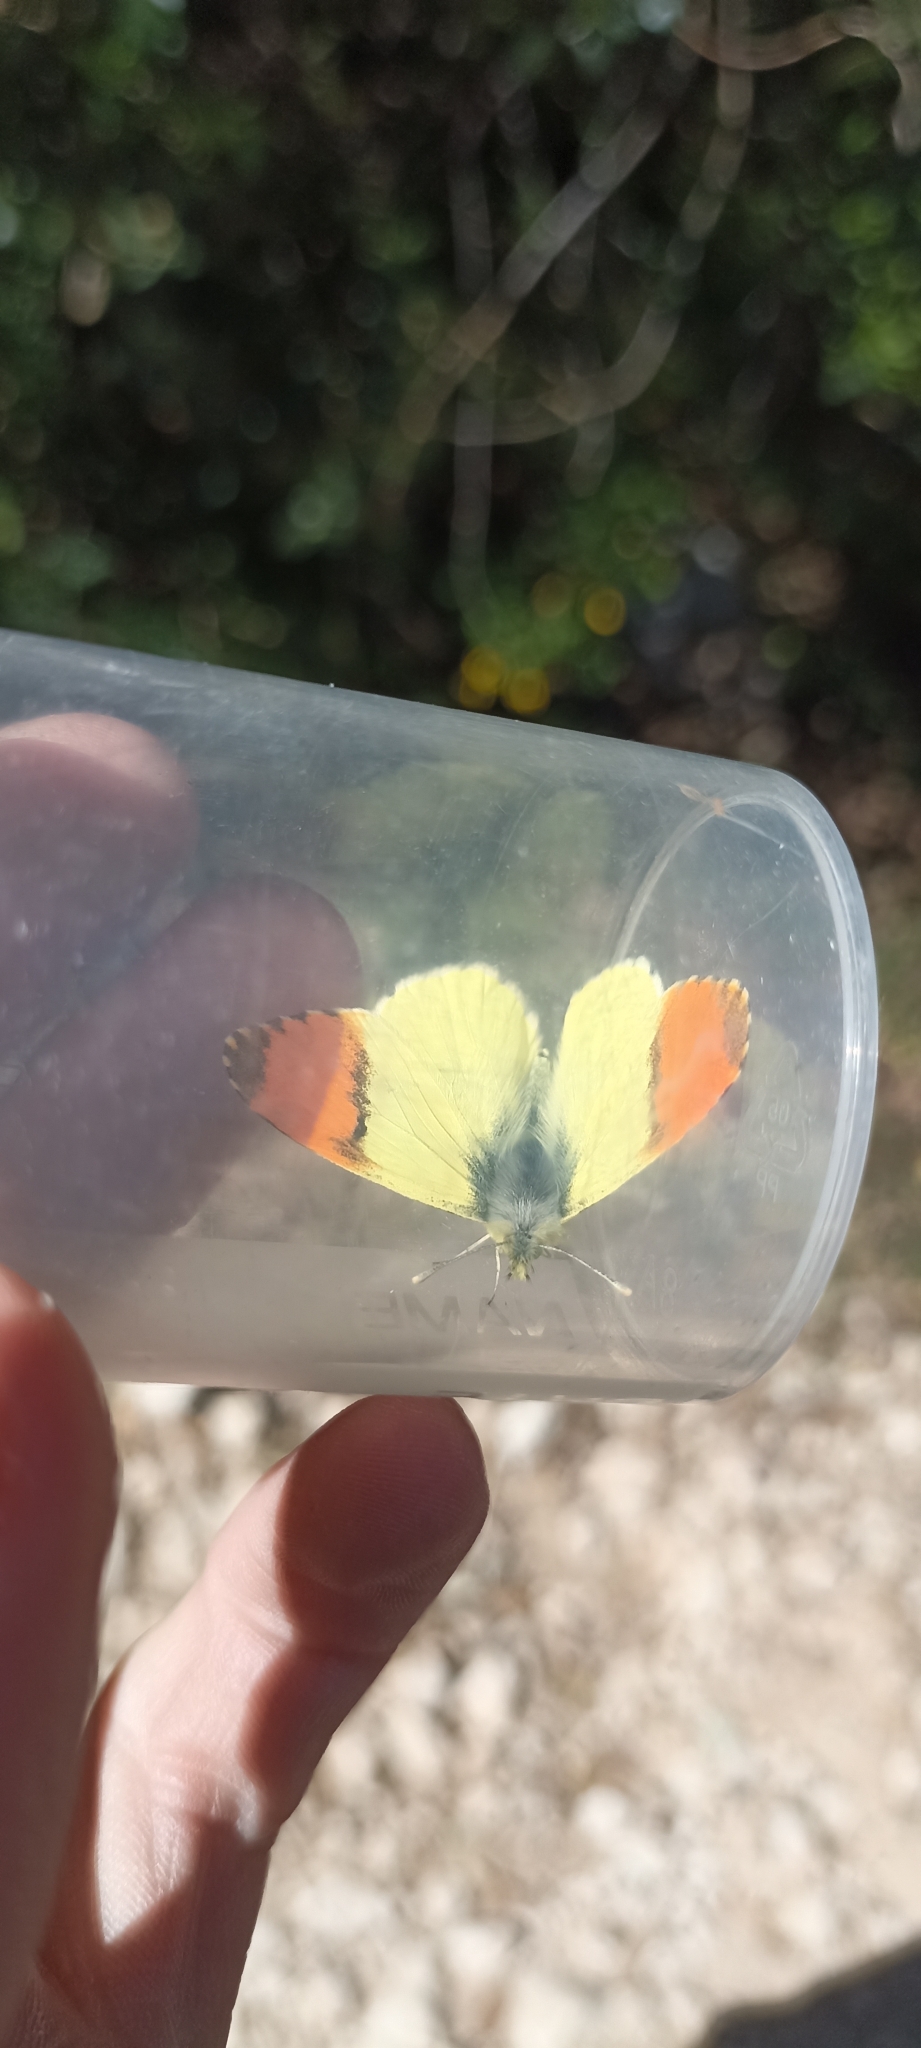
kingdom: Animalia
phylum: Arthropoda
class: Insecta
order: Lepidoptera
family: Pieridae
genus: Anthocharis
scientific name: Anthocharis euphenoides
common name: Provence orange-tip
